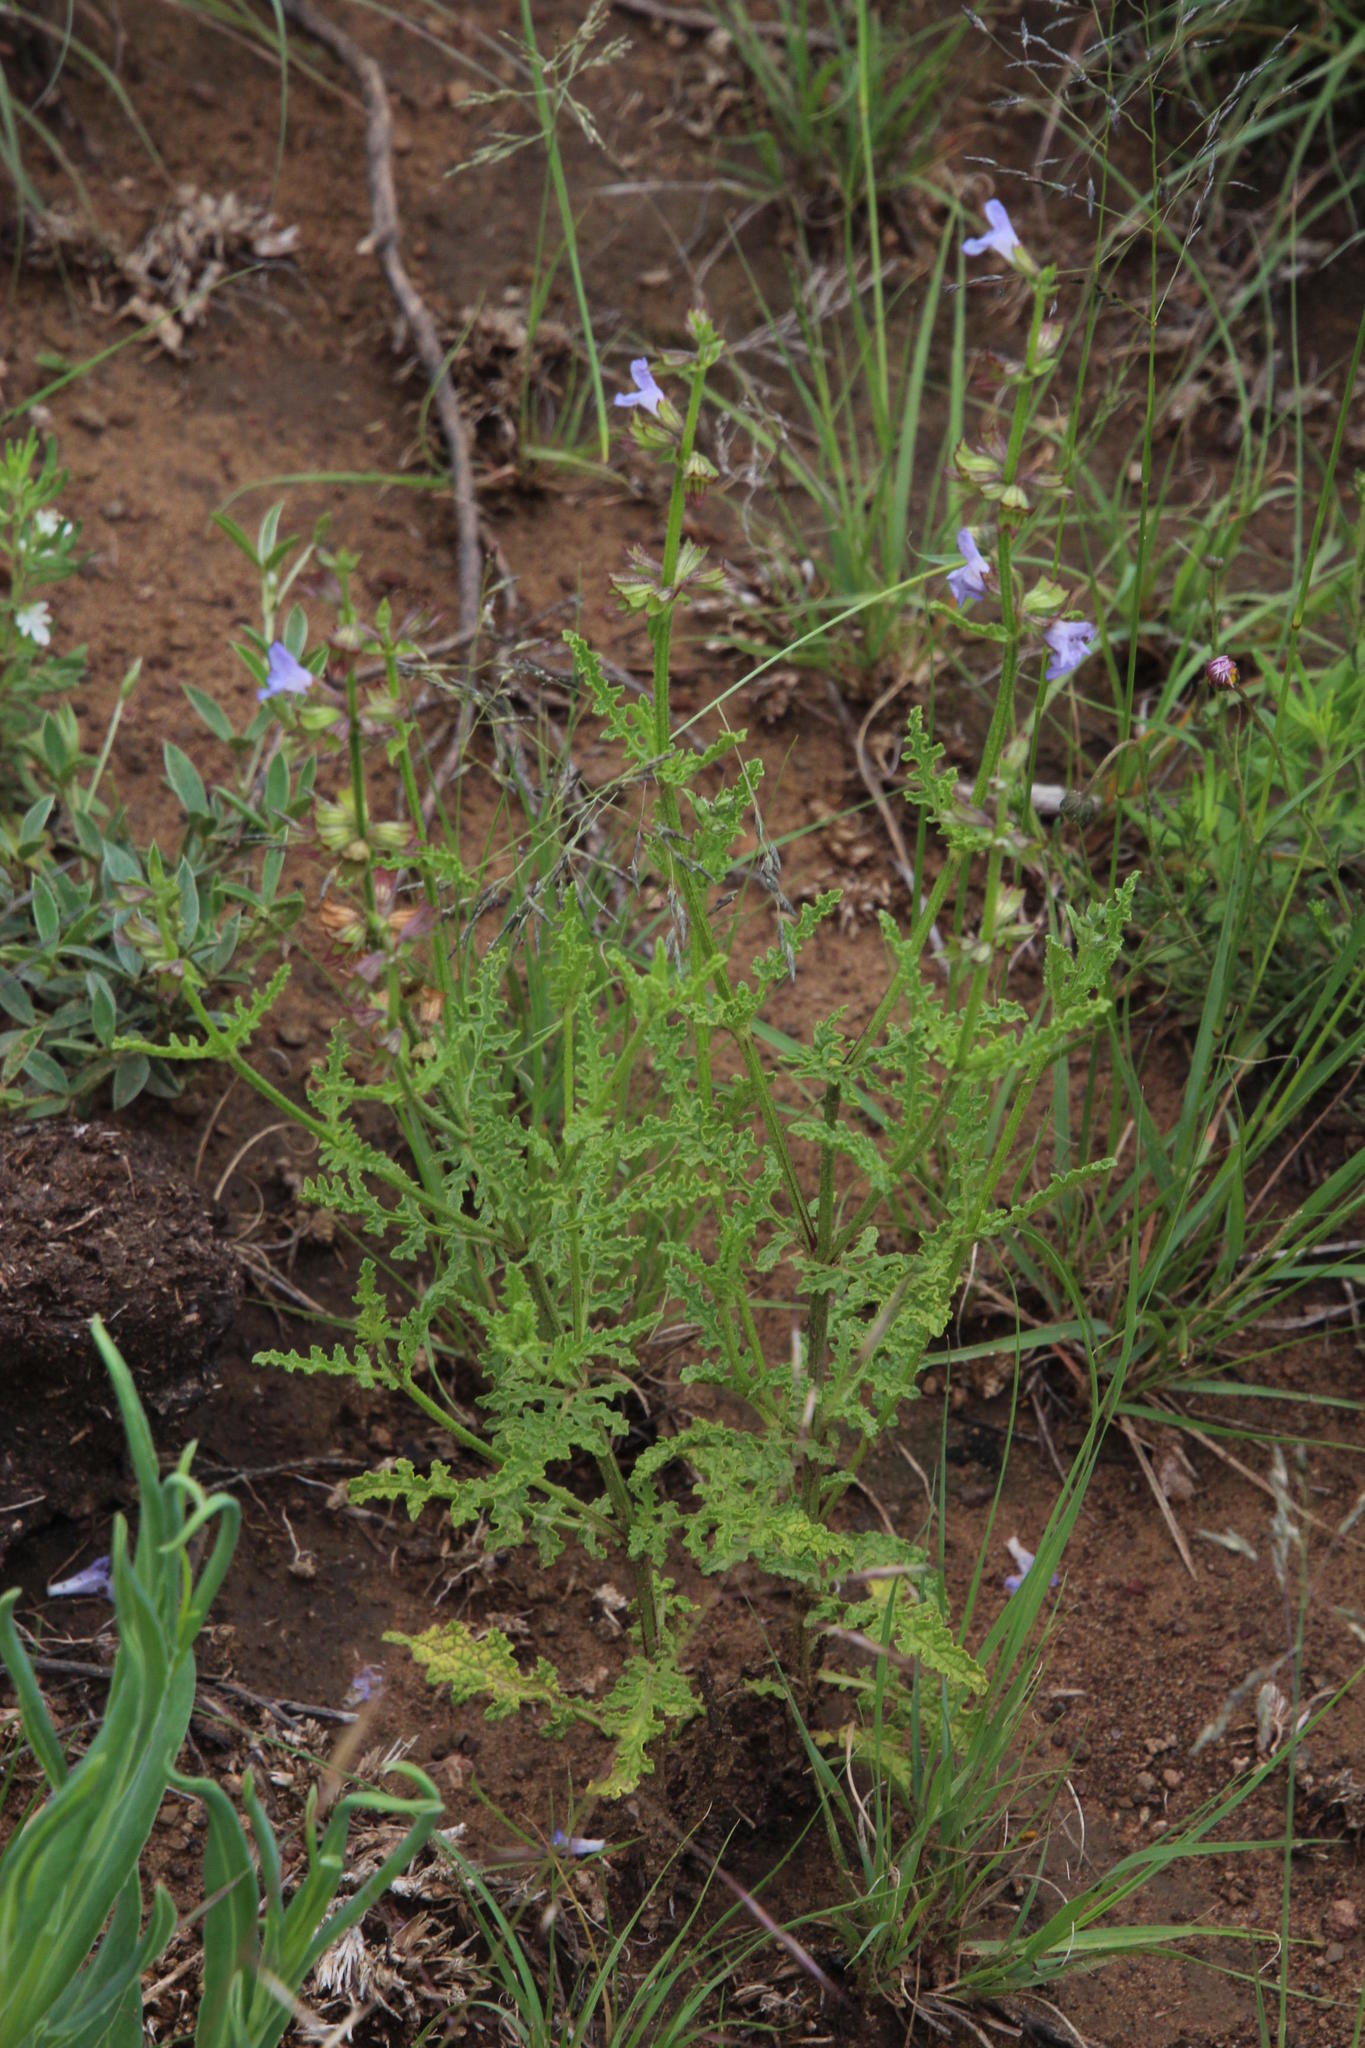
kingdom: Plantae
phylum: Tracheophyta
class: Magnoliopsida
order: Lamiales
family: Lamiaceae
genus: Salvia
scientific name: Salvia runcinata
